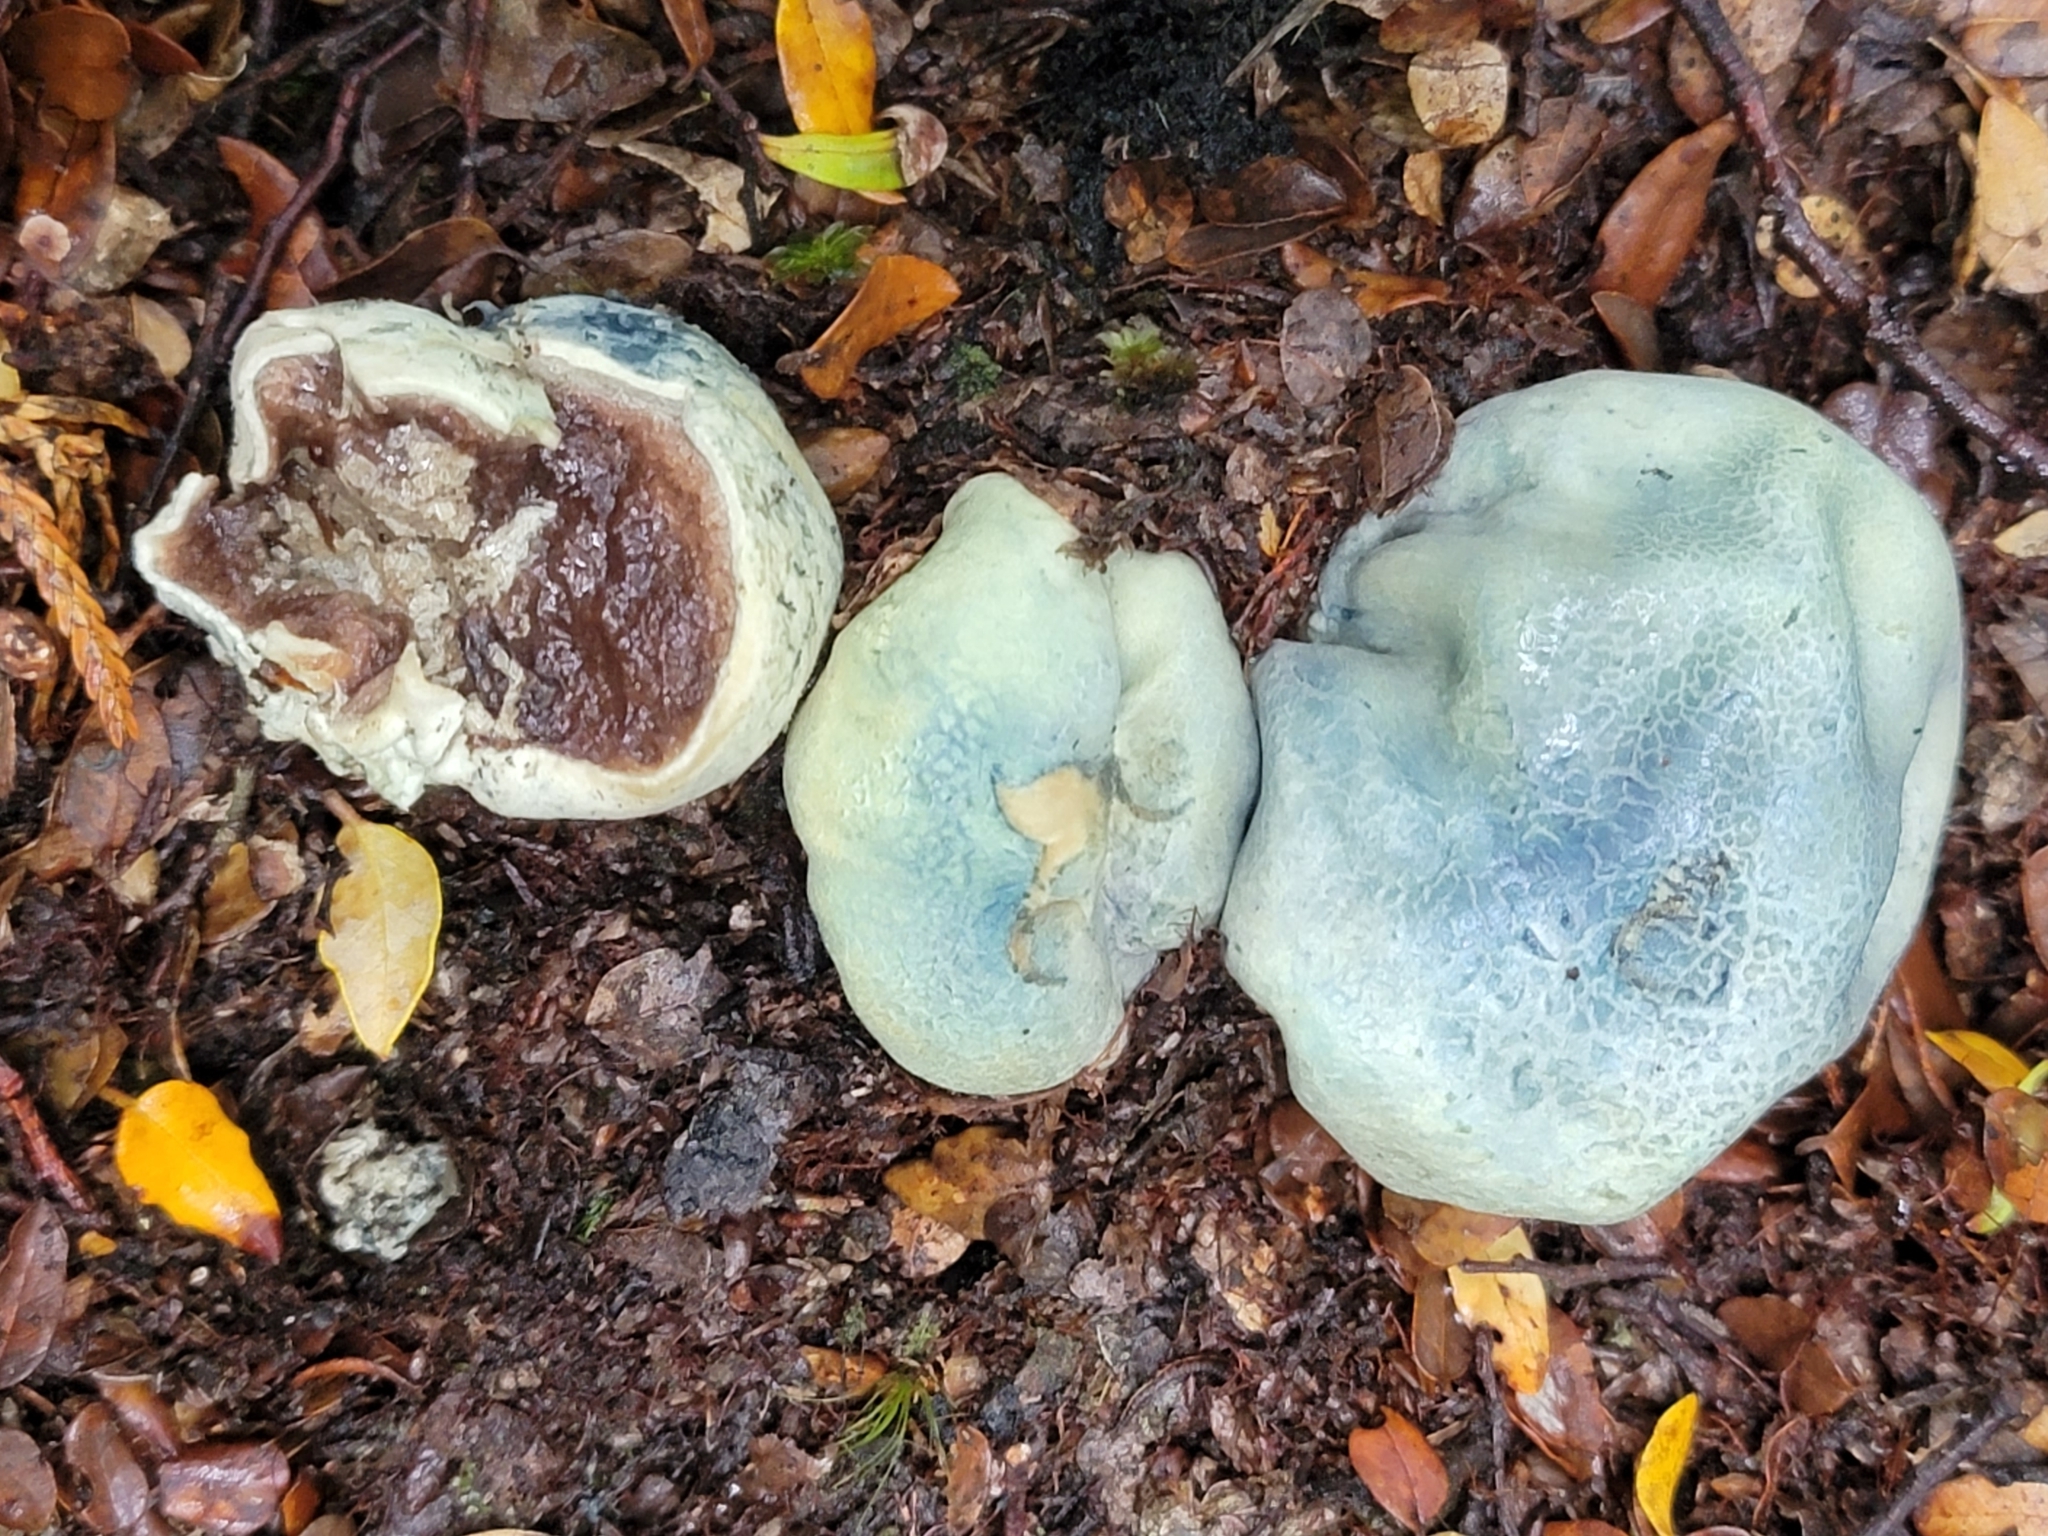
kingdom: Fungi
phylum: Basidiomycota
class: Agaricomycetes
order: Boletales
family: Boletaceae
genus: Leccinum
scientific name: Leccinum pachyderme
